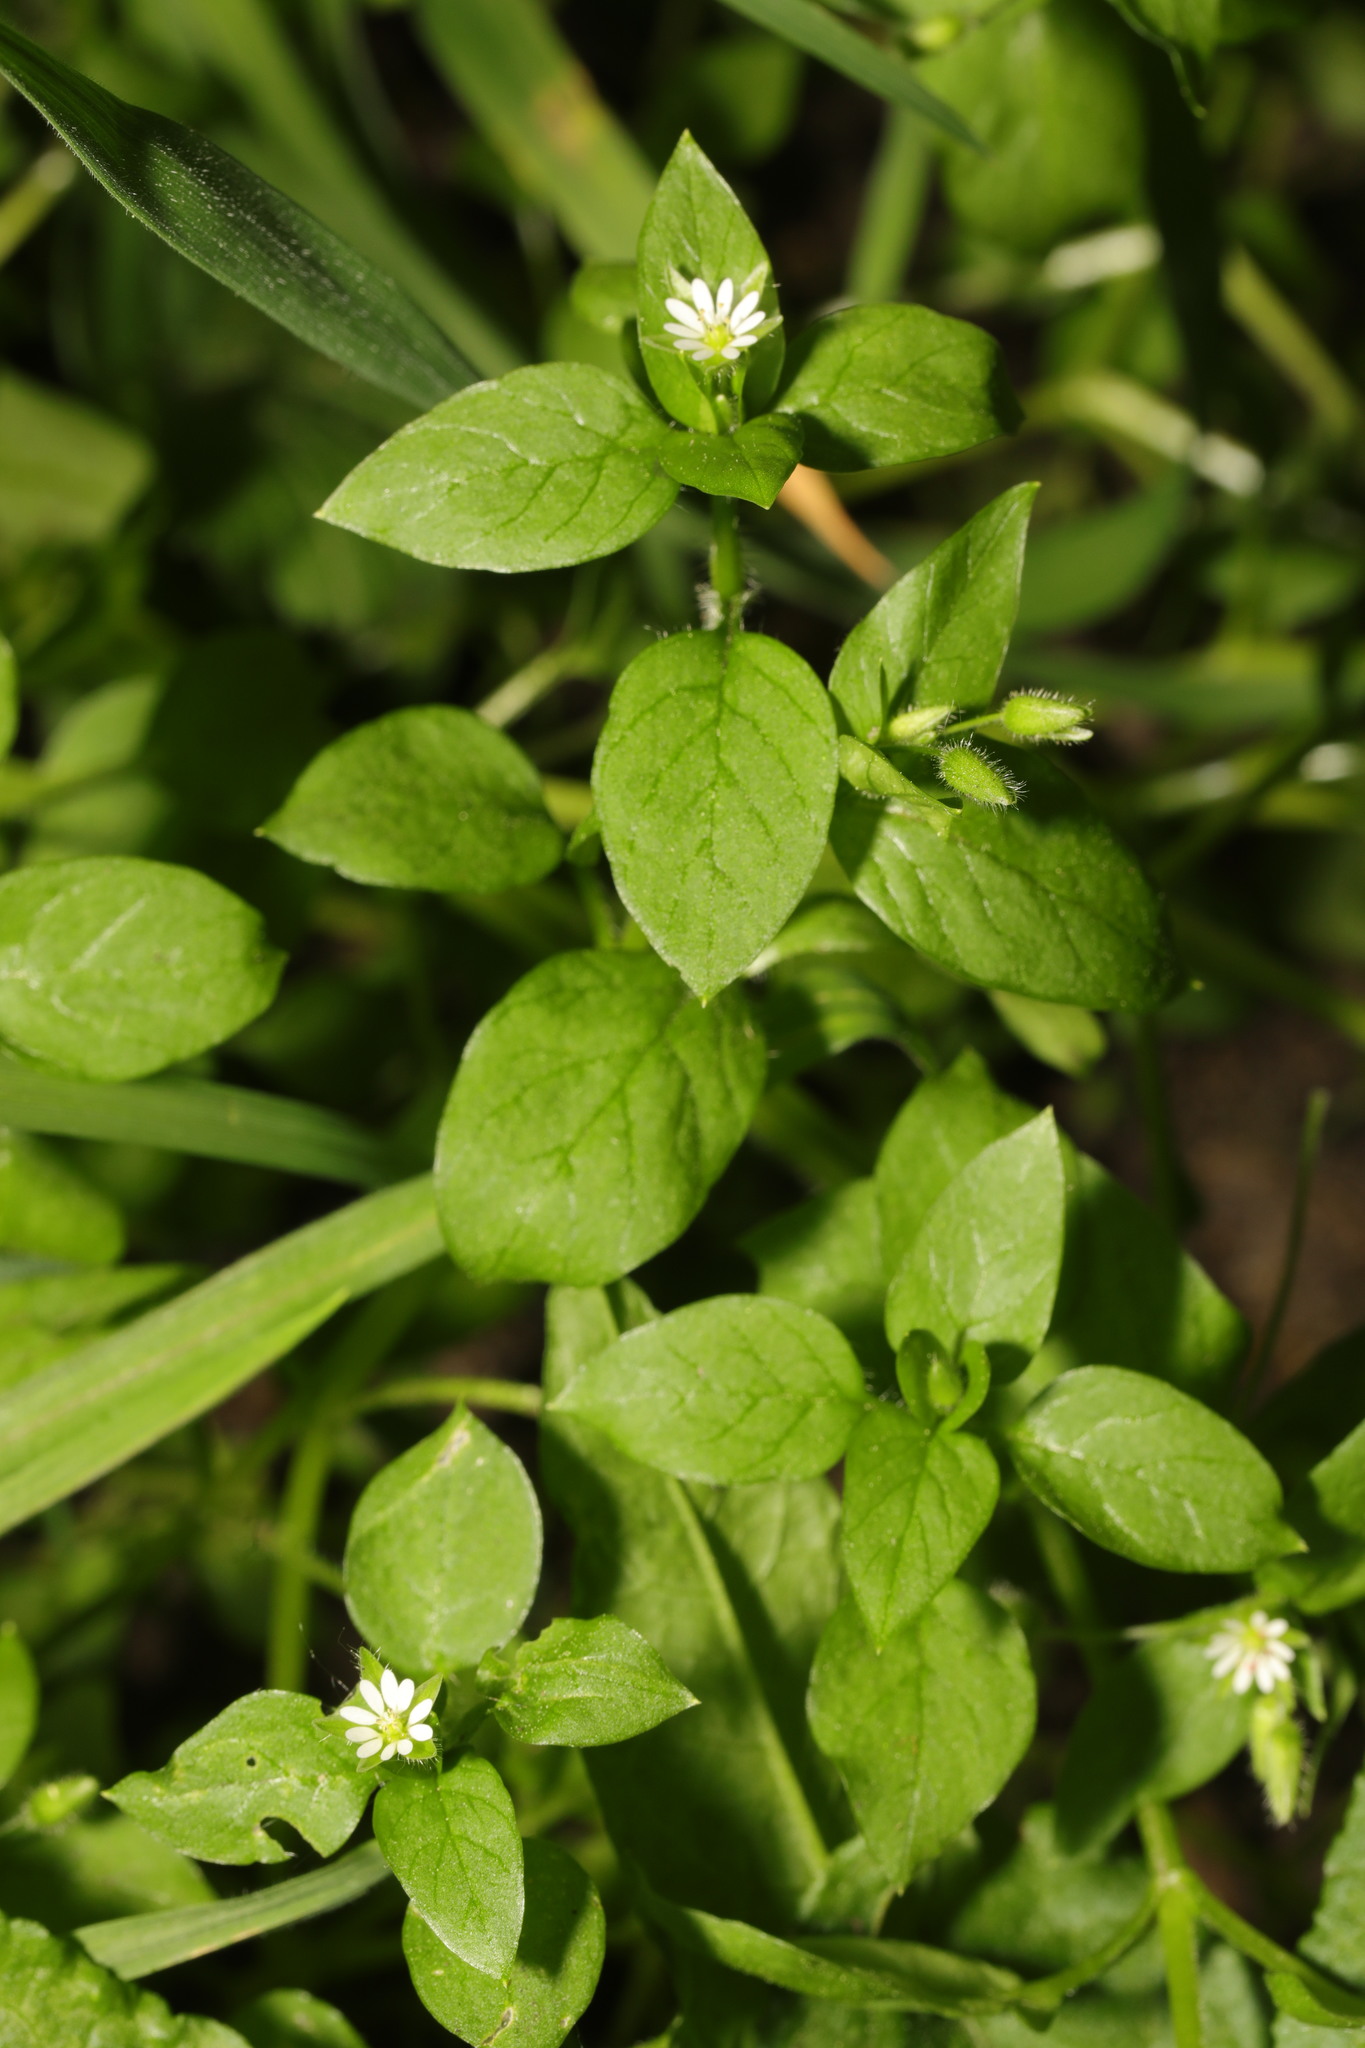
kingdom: Plantae
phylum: Tracheophyta
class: Magnoliopsida
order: Caryophyllales
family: Caryophyllaceae
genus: Stellaria
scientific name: Stellaria media
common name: Common chickweed
